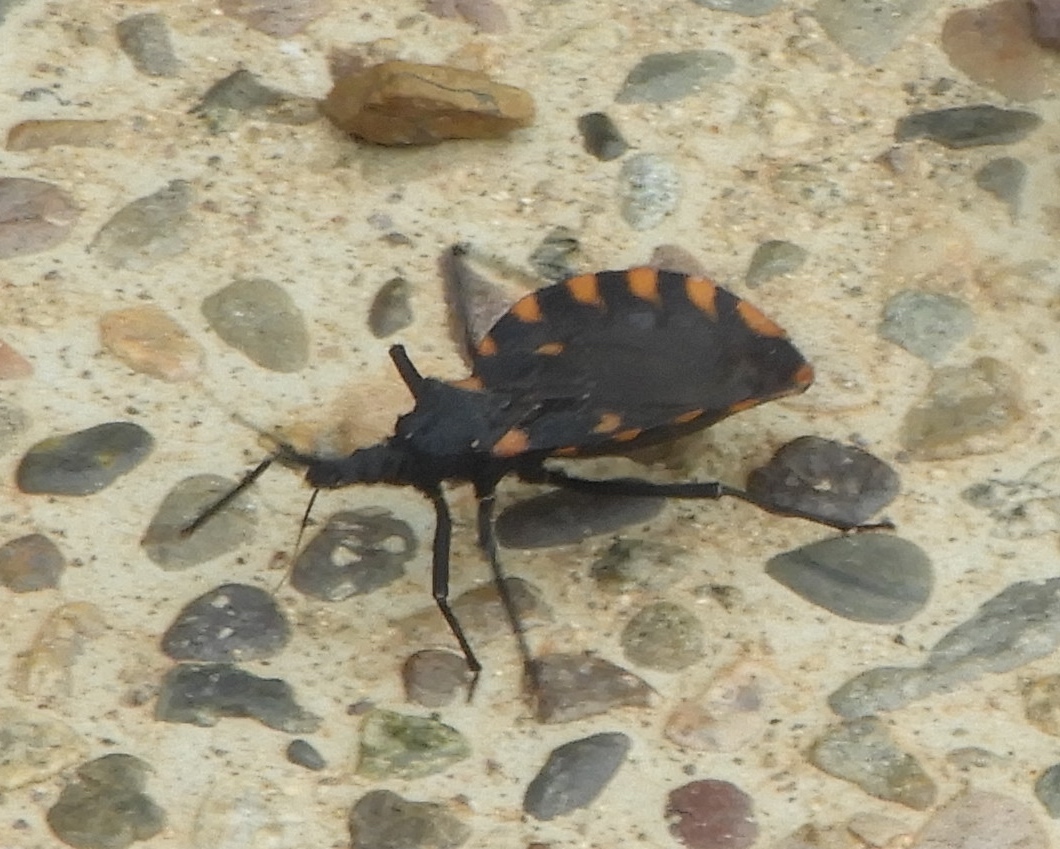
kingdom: Animalia
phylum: Arthropoda
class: Insecta
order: Hemiptera
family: Reduviidae
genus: Meccus
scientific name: Meccus longipennis
